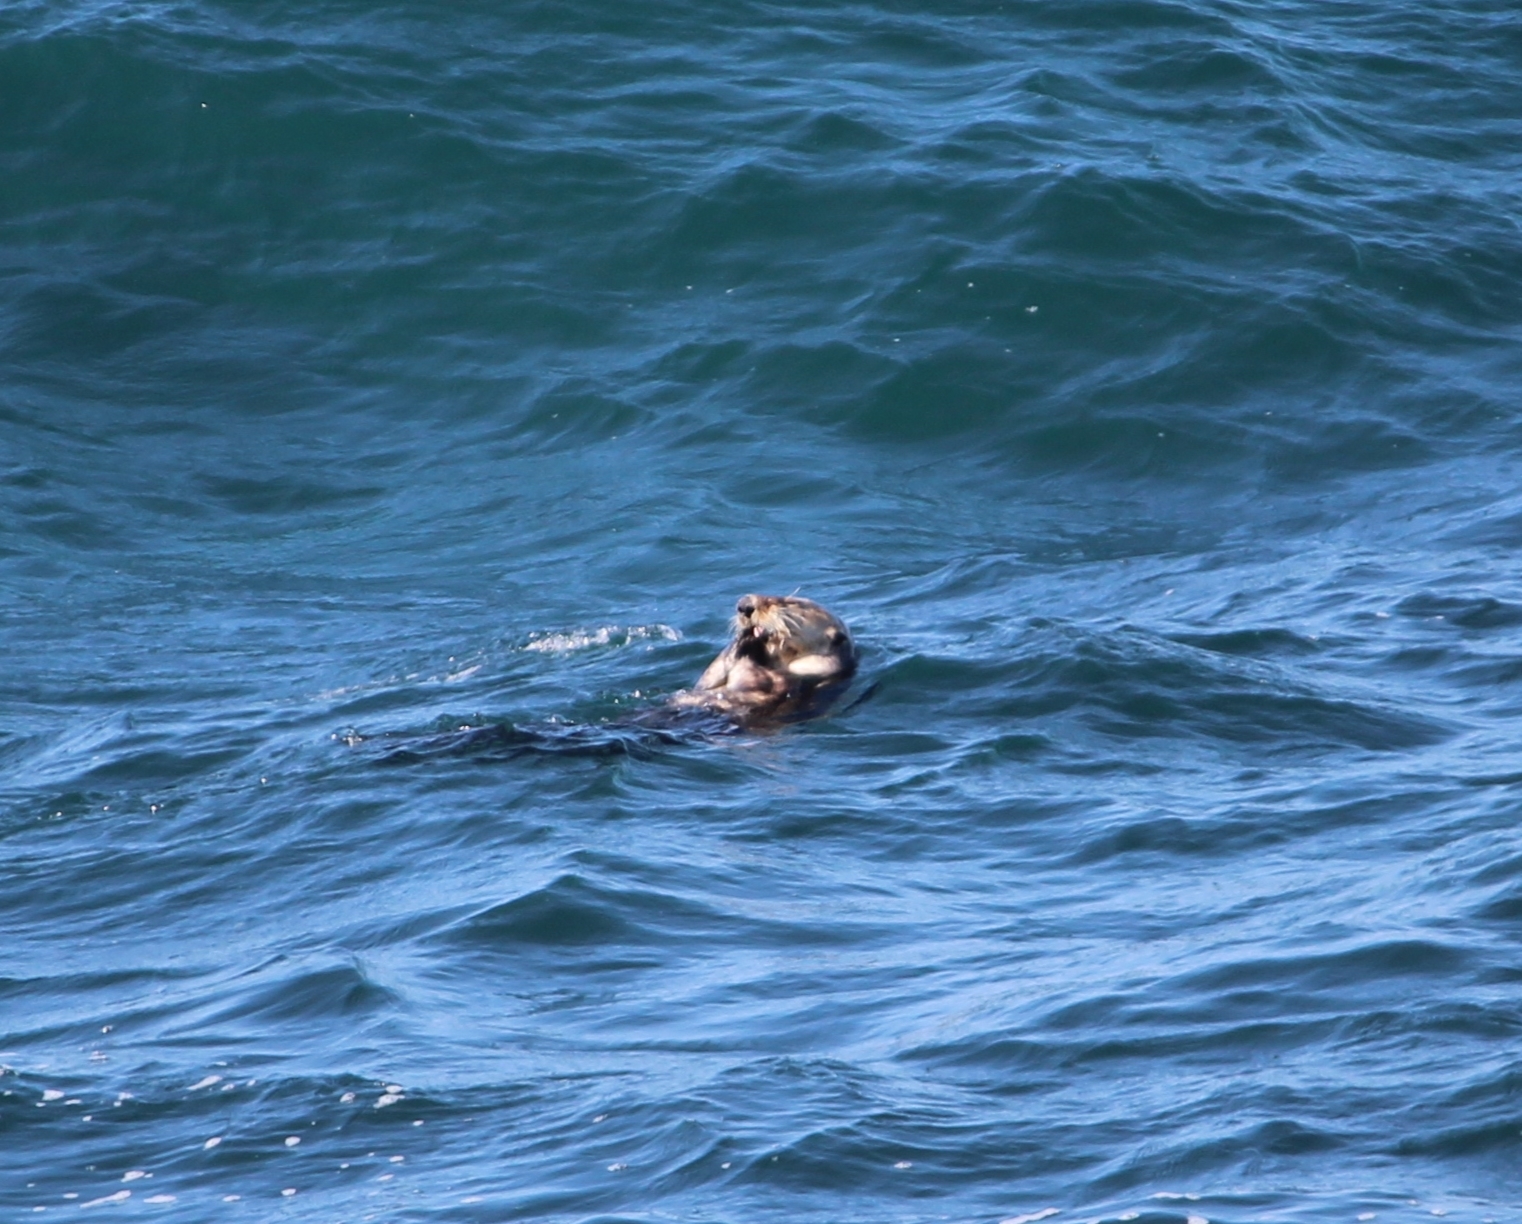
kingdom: Animalia
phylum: Chordata
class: Mammalia
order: Carnivora
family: Mustelidae
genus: Enhydra
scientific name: Enhydra lutris
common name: Sea otter
